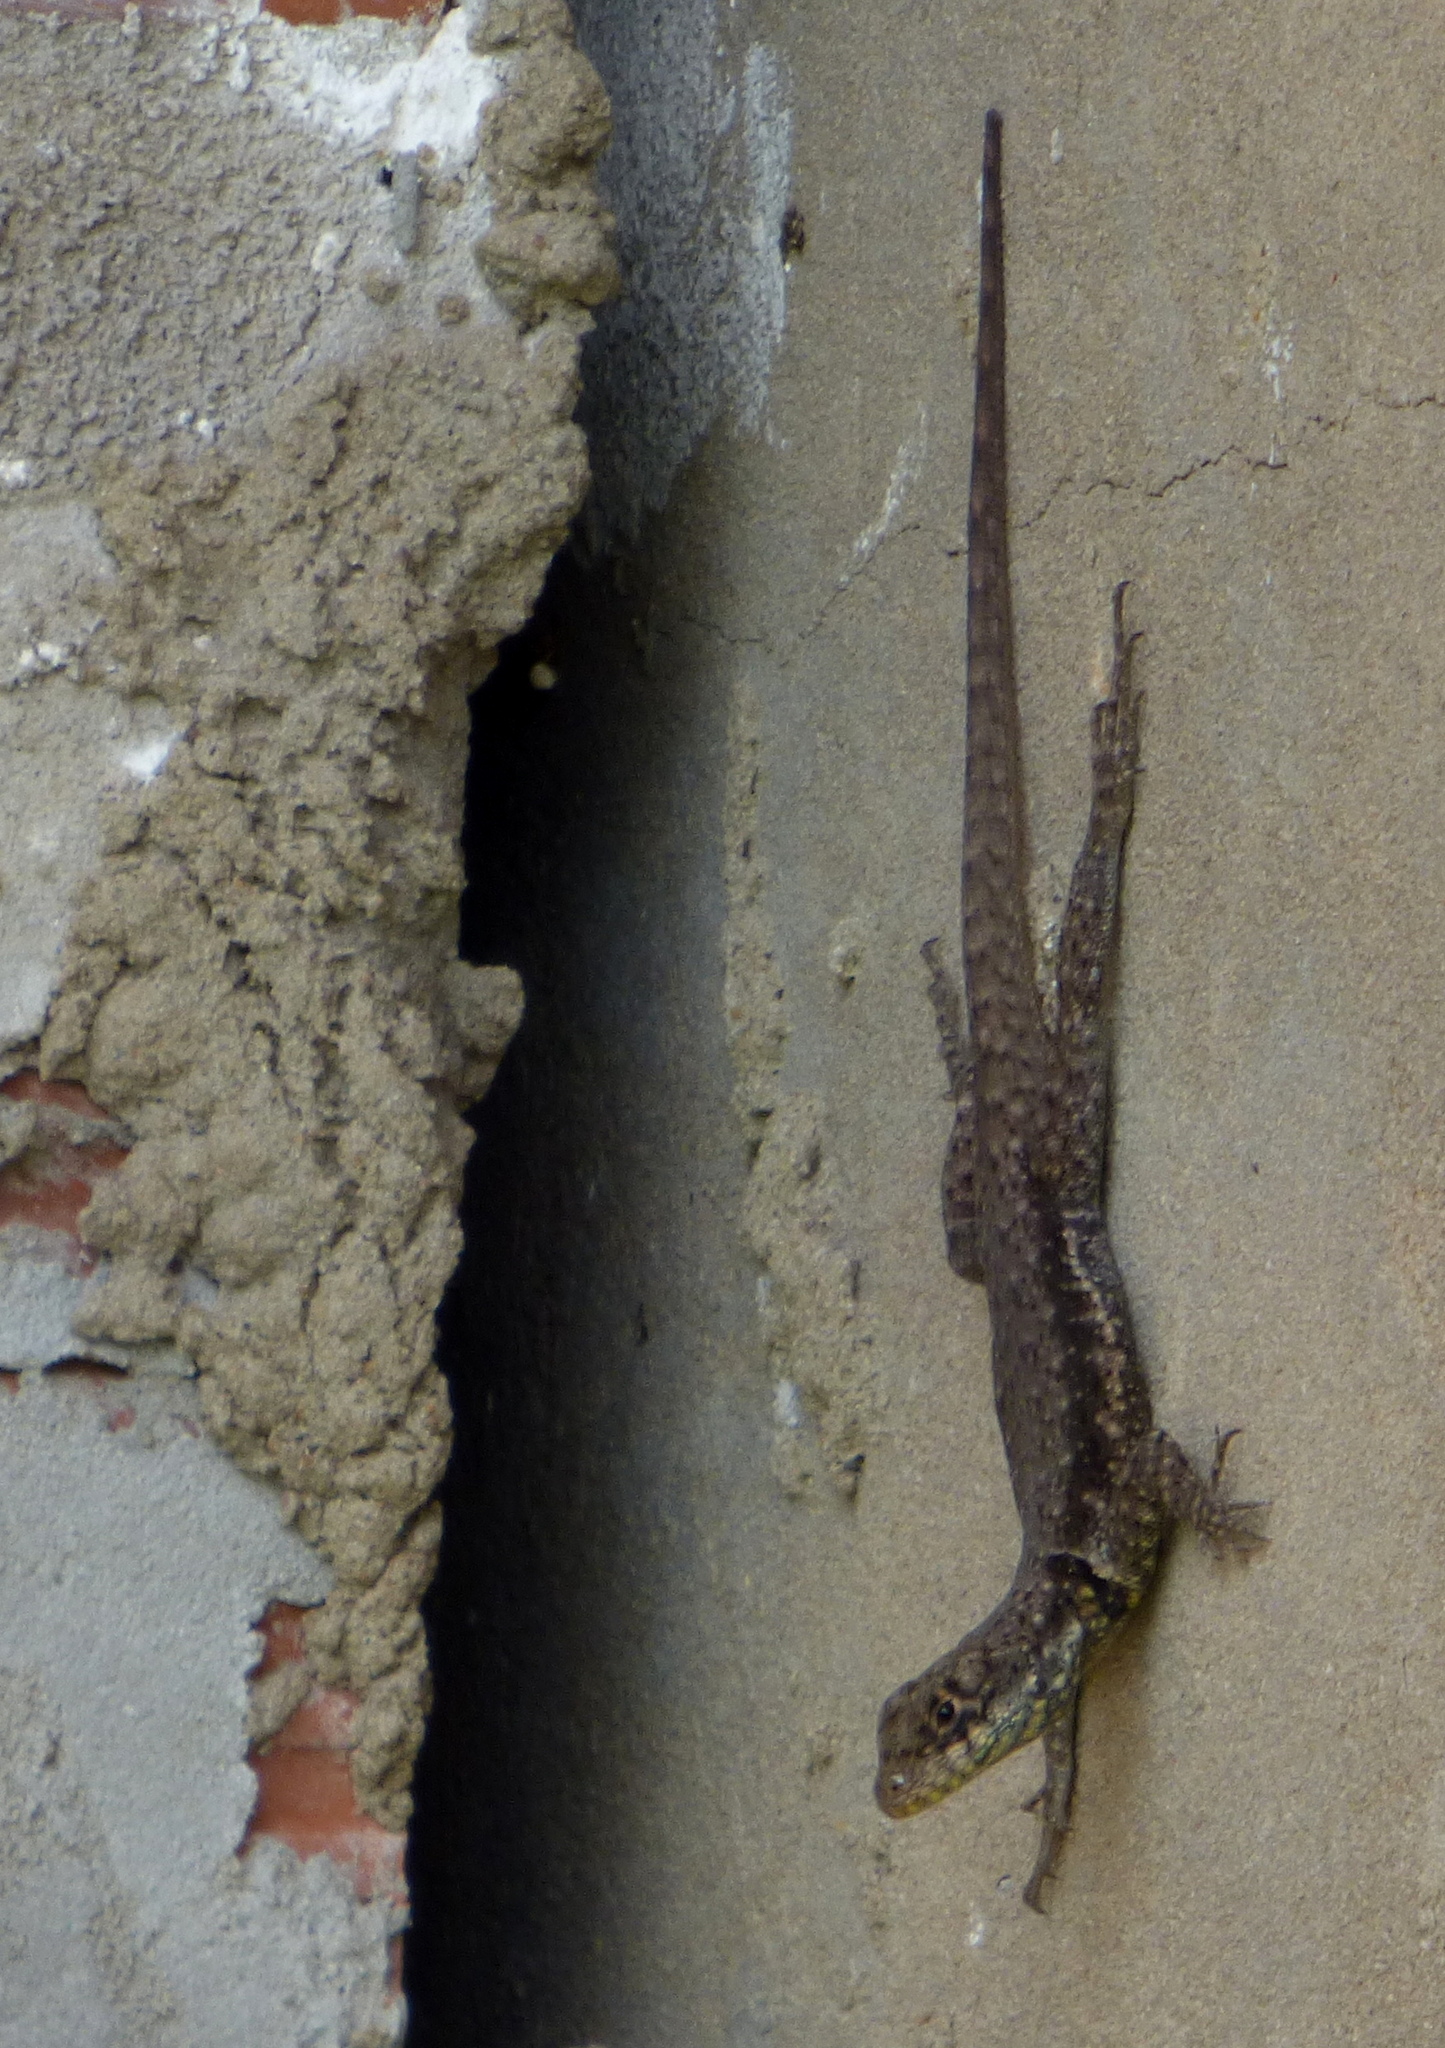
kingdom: Animalia
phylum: Chordata
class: Squamata
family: Tropiduridae
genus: Tropidurus
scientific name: Tropidurus torquatus
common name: Amazon lava lizard
